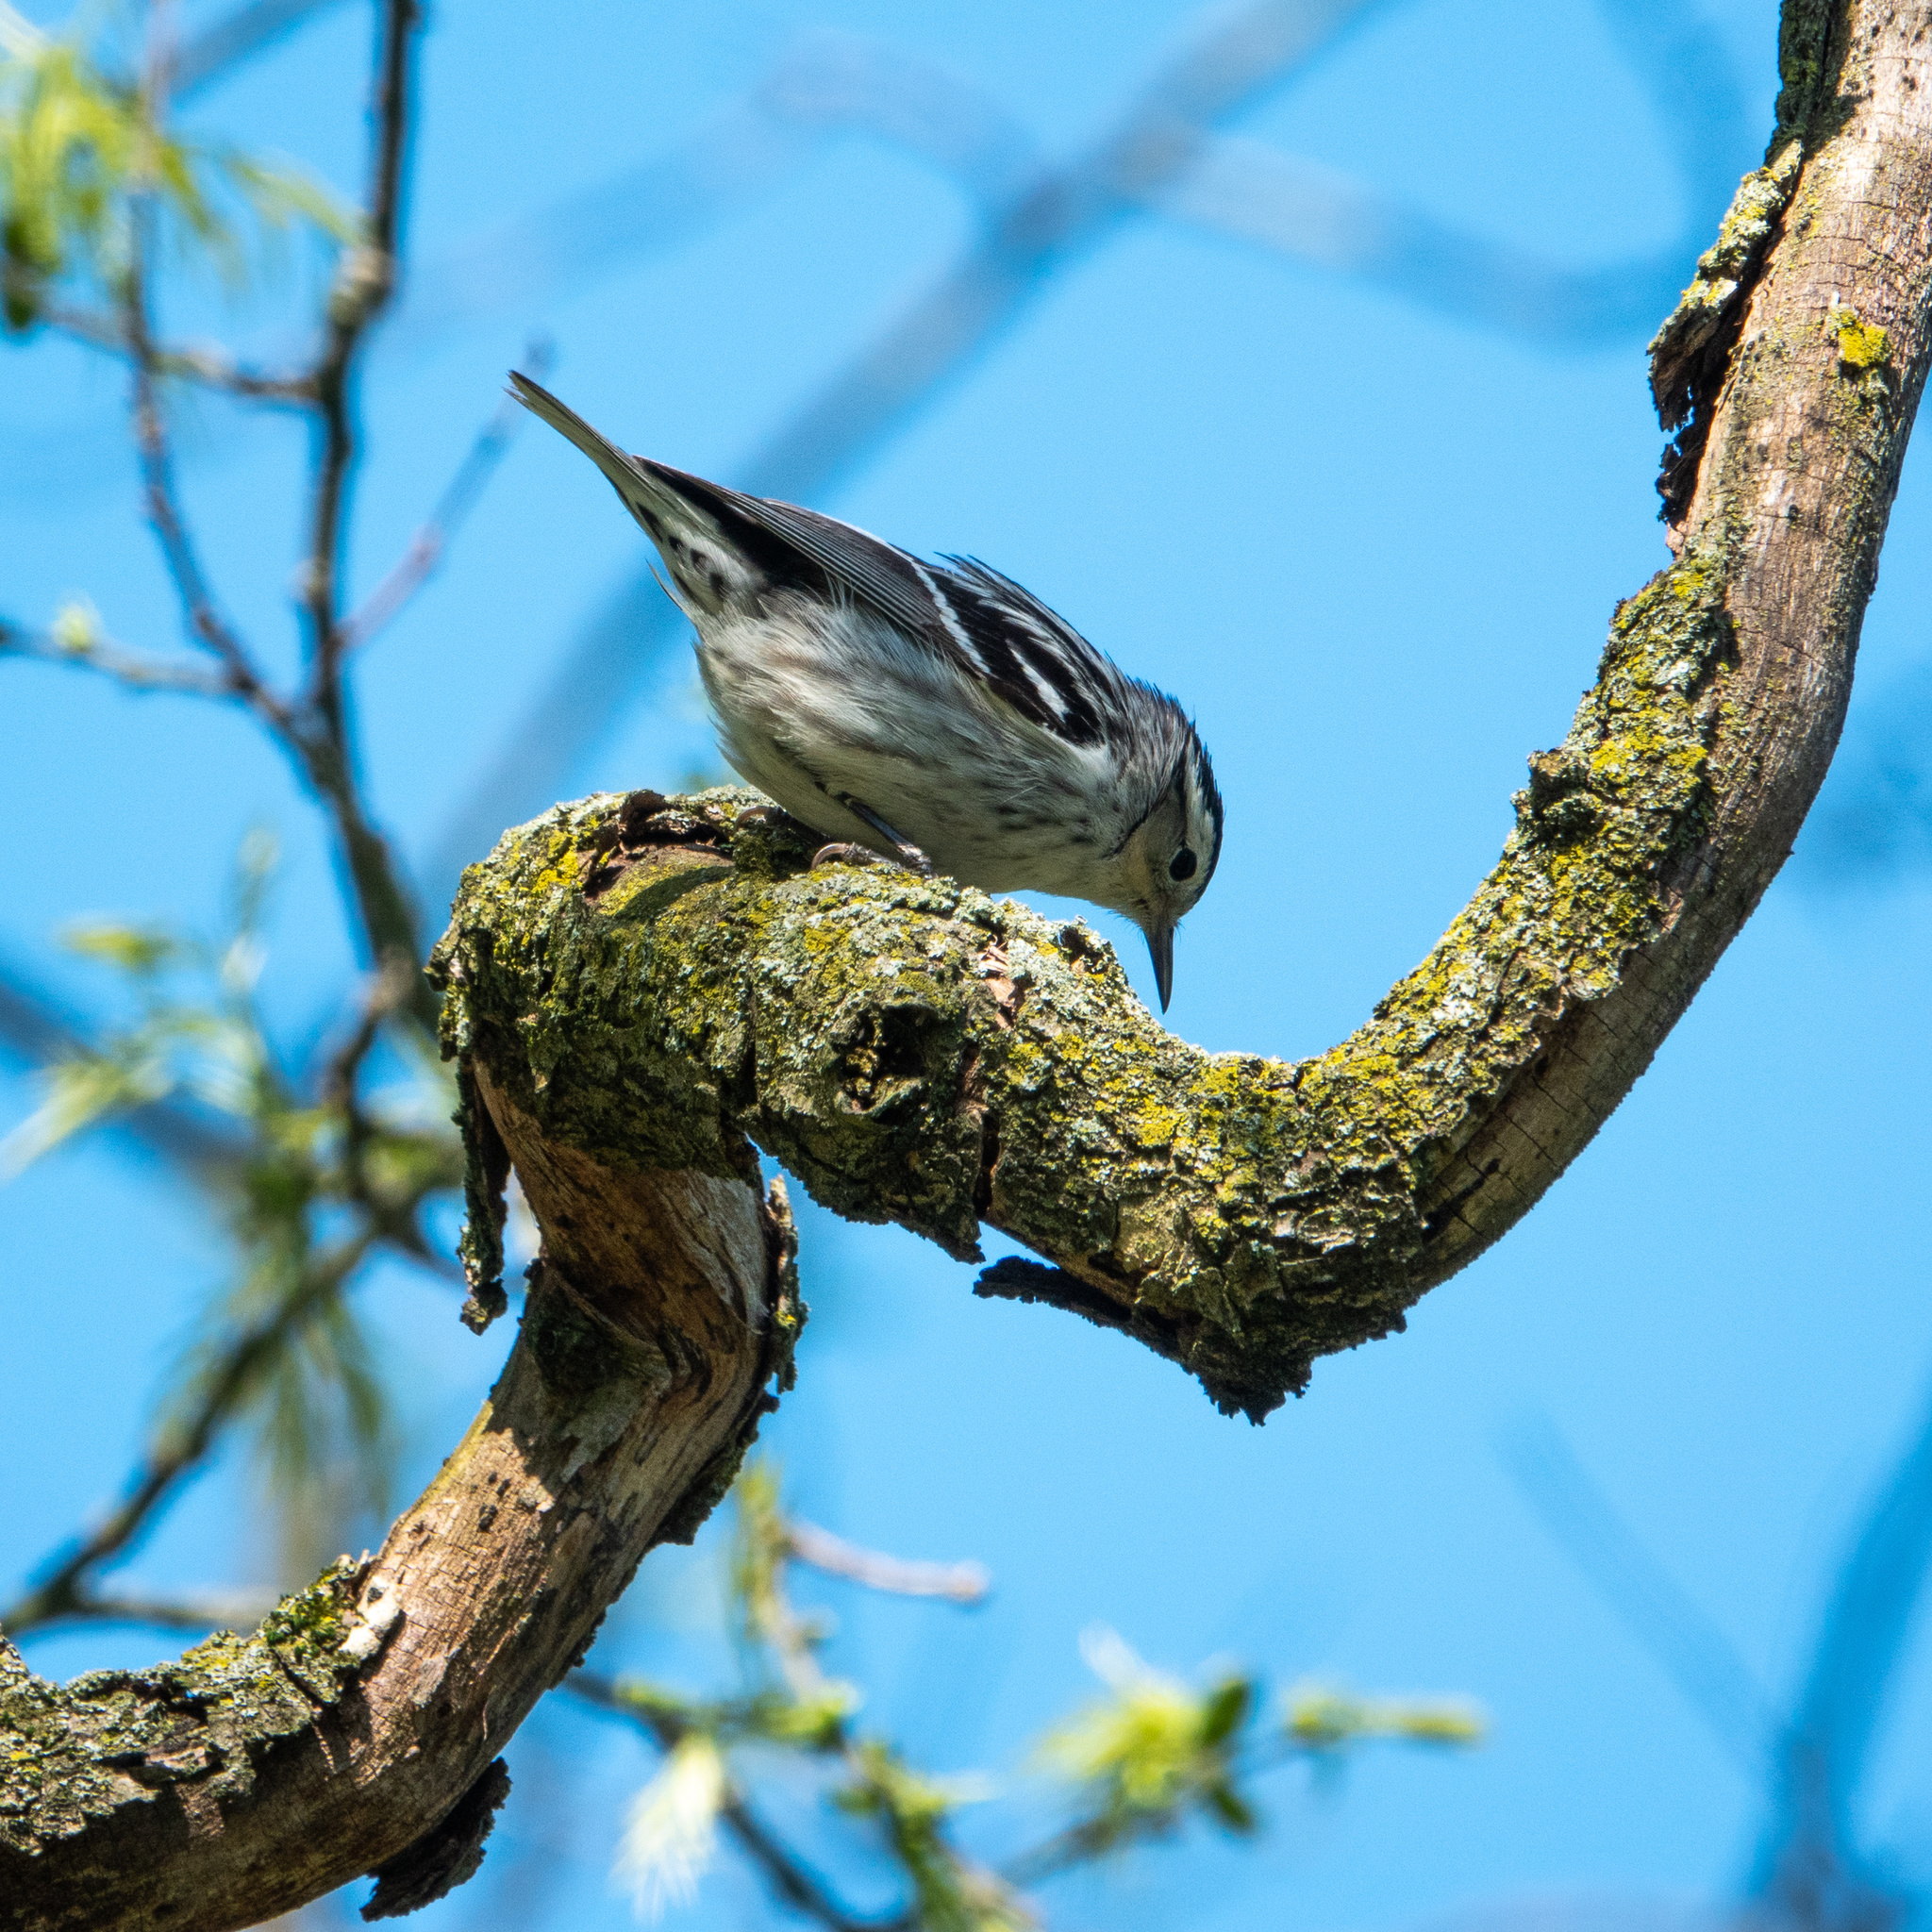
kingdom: Animalia
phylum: Chordata
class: Aves
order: Passeriformes
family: Parulidae
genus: Mniotilta
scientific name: Mniotilta varia
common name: Black-and-white warbler
